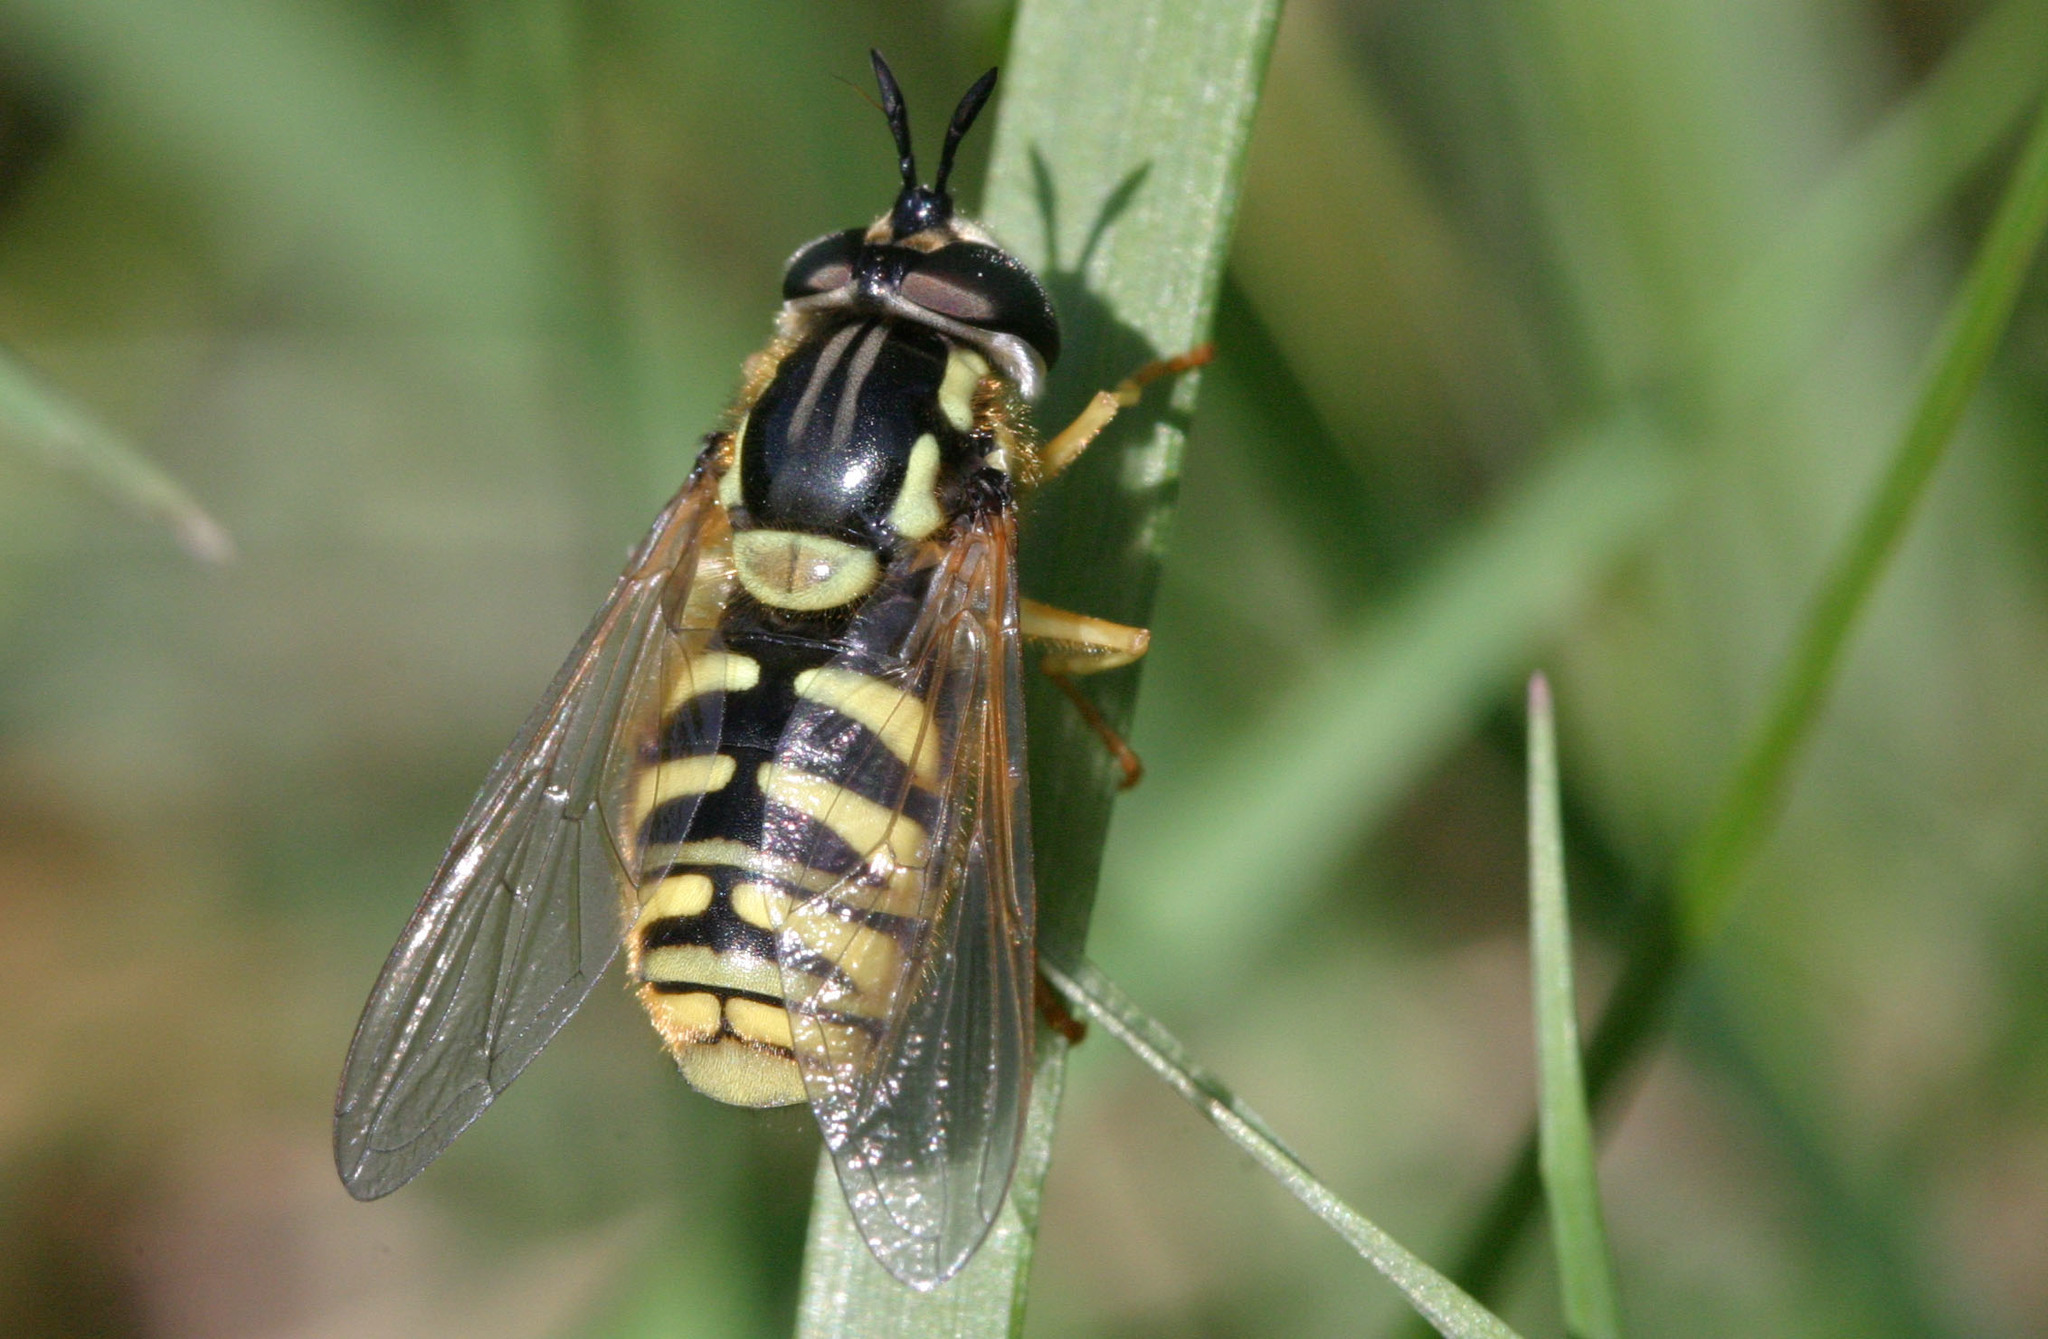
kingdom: Animalia
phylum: Arthropoda
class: Insecta
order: Diptera
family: Syrphidae
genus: Chrysotoxum
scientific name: Chrysotoxum cautum
